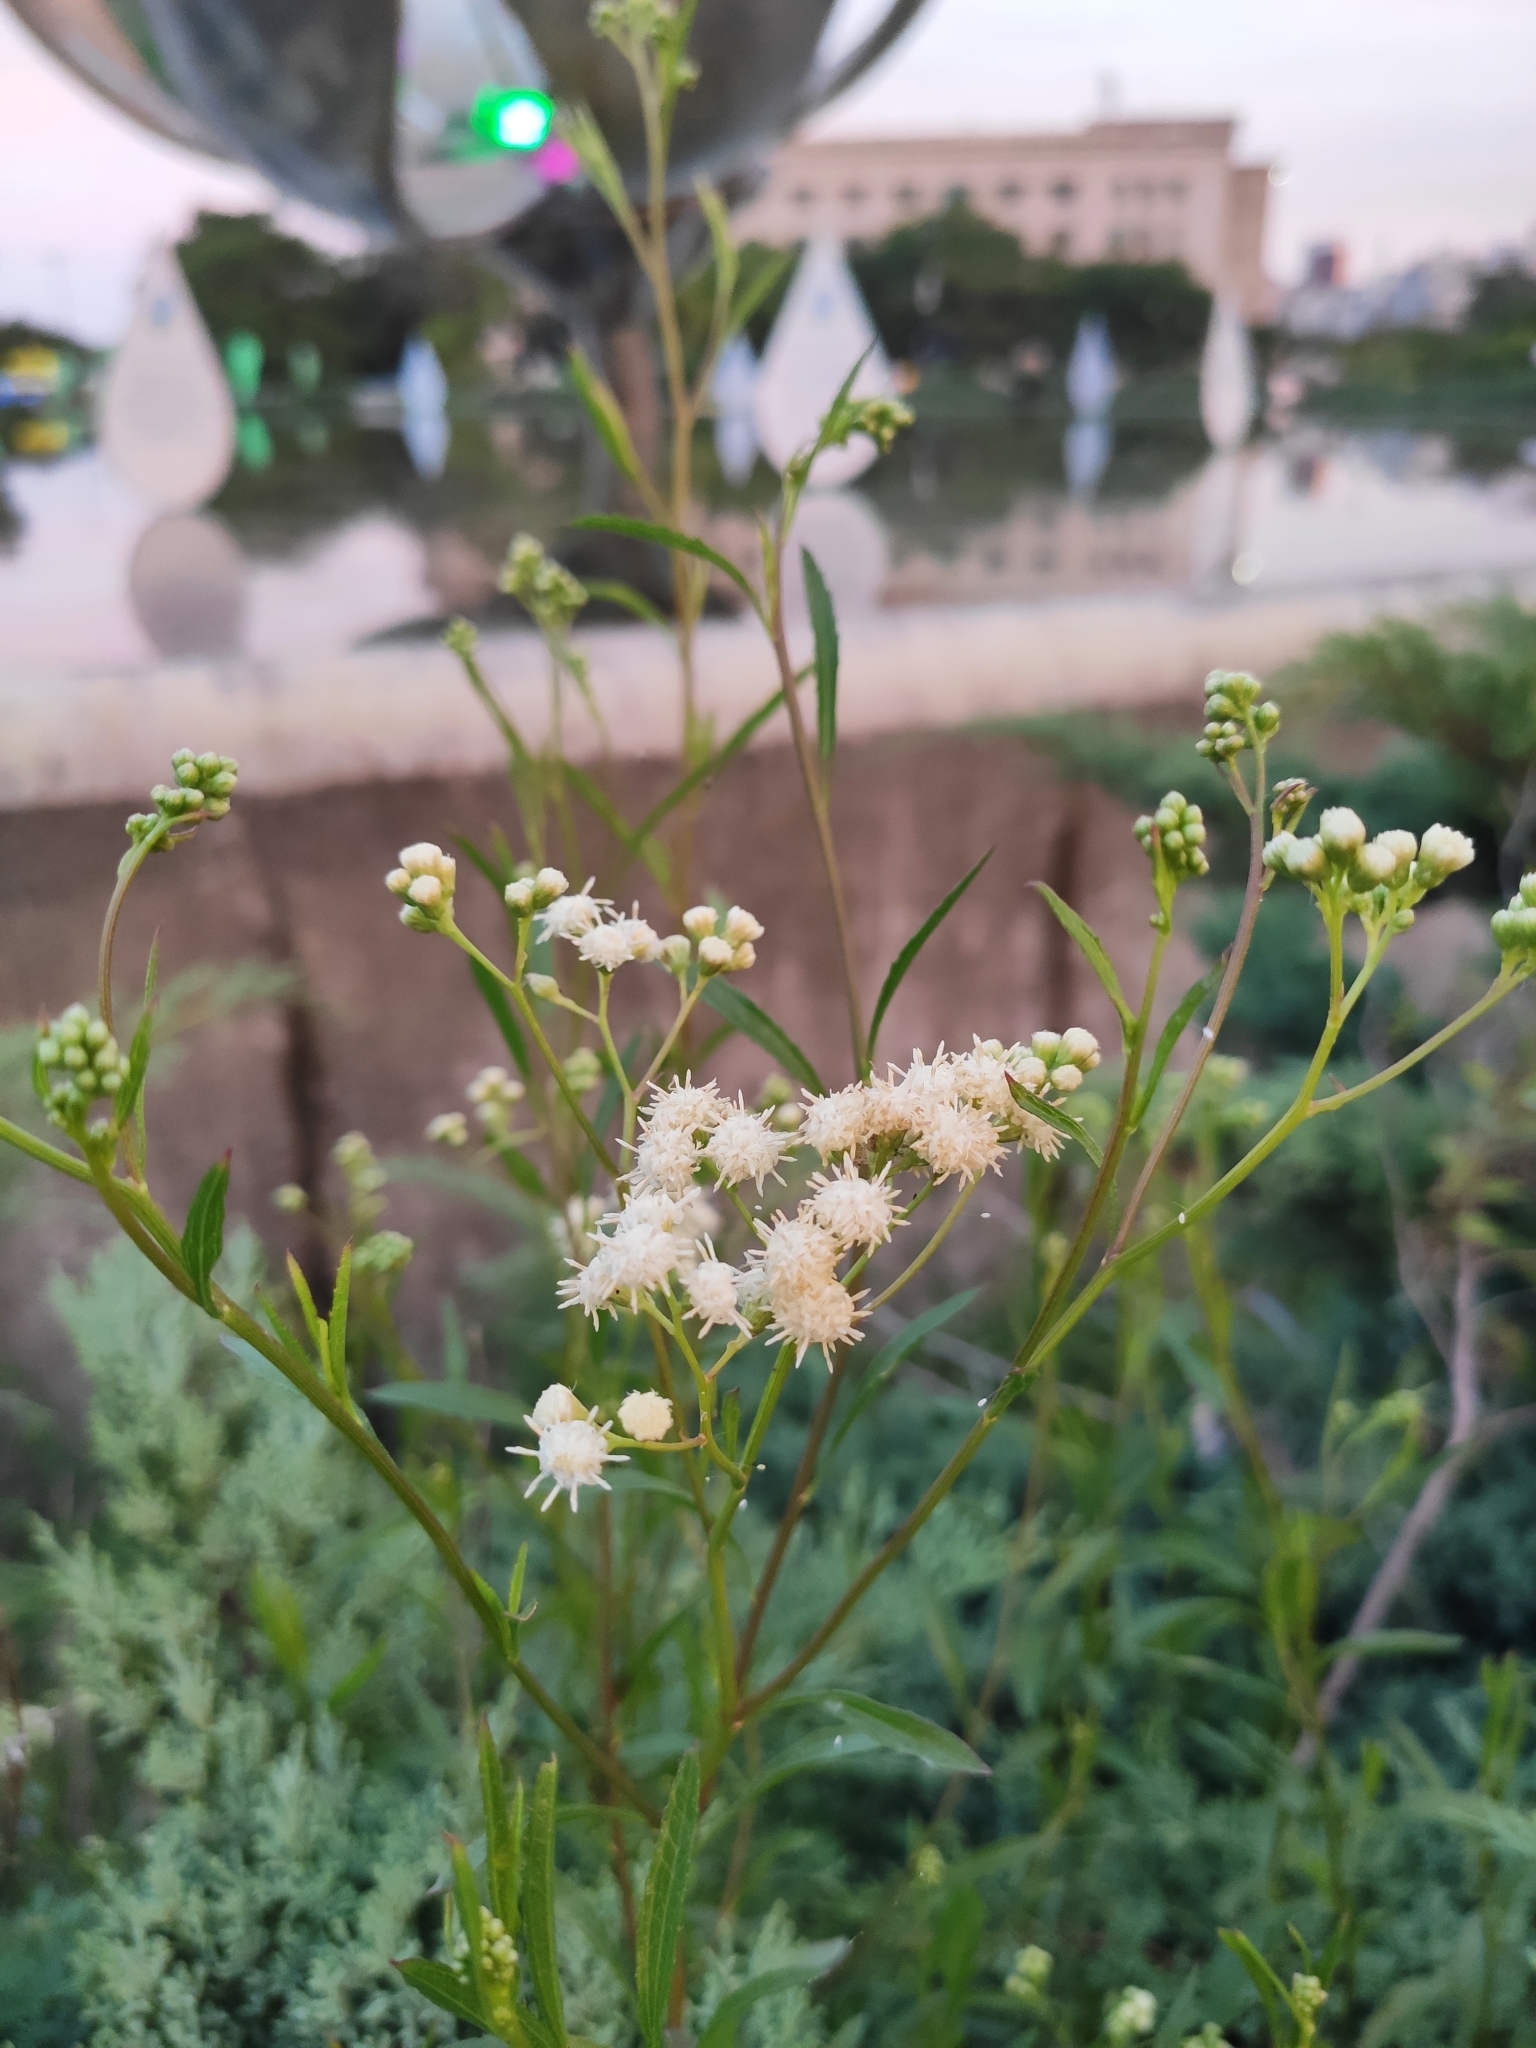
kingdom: Plantae
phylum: Tracheophyta
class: Magnoliopsida
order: Asterales
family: Asteraceae
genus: Baccharis
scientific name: Baccharis glutinosa
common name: Saltmarsh baccharis
